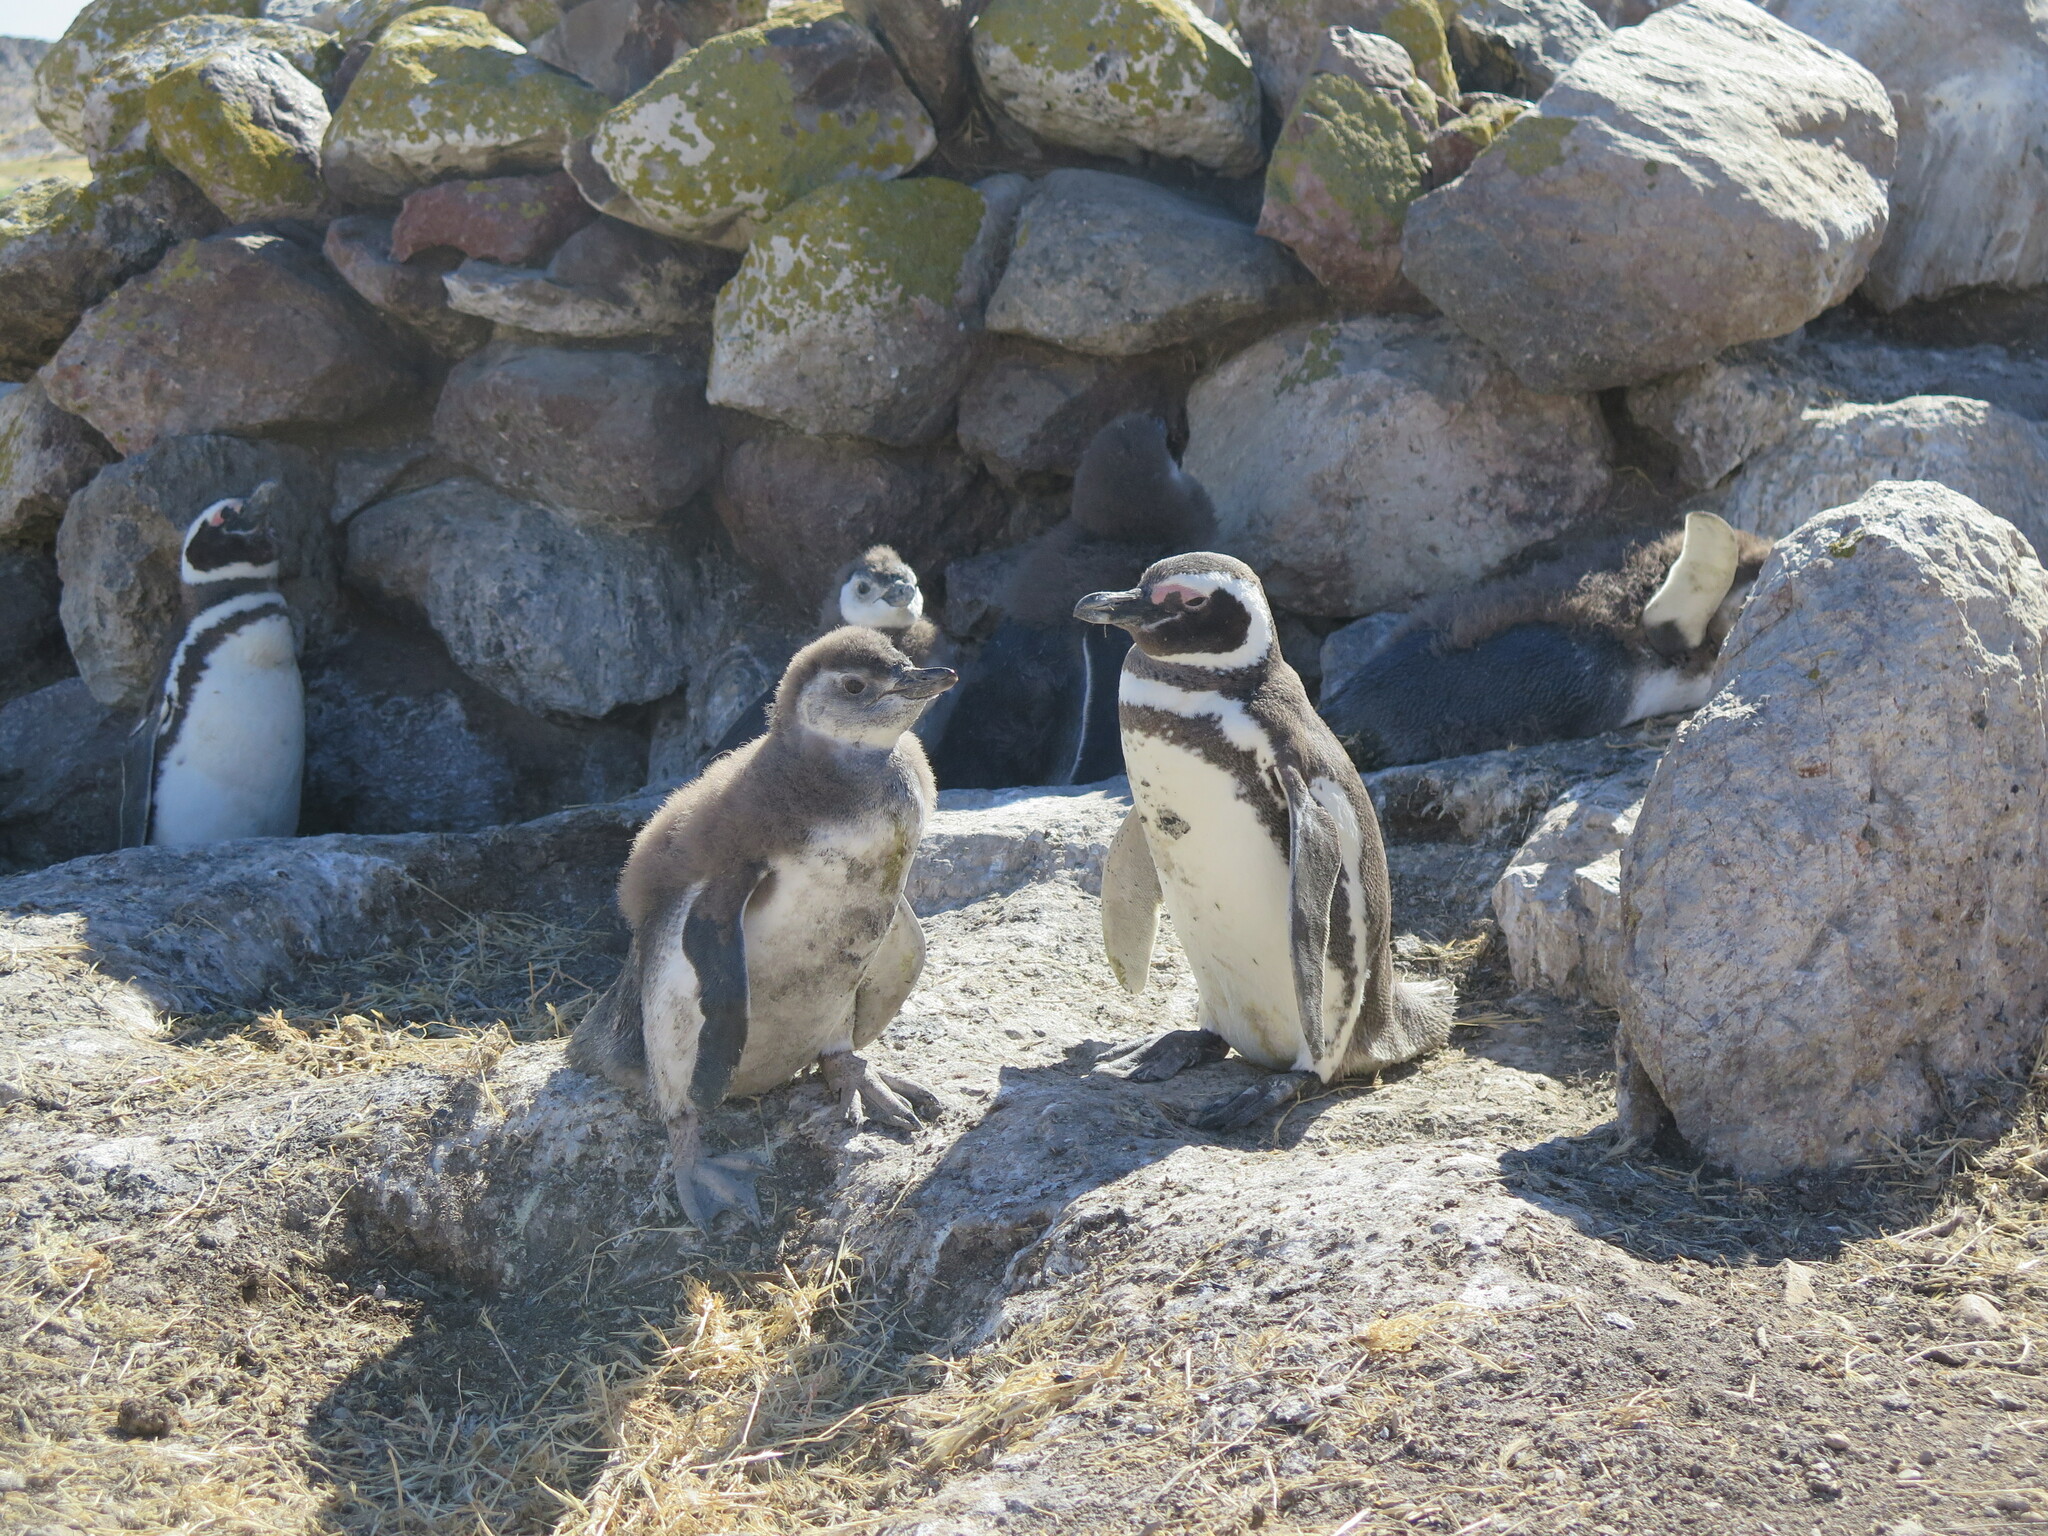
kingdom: Animalia
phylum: Chordata
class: Aves
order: Sphenisciformes
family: Spheniscidae
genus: Spheniscus
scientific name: Spheniscus magellanicus
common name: Magellanic penguin
